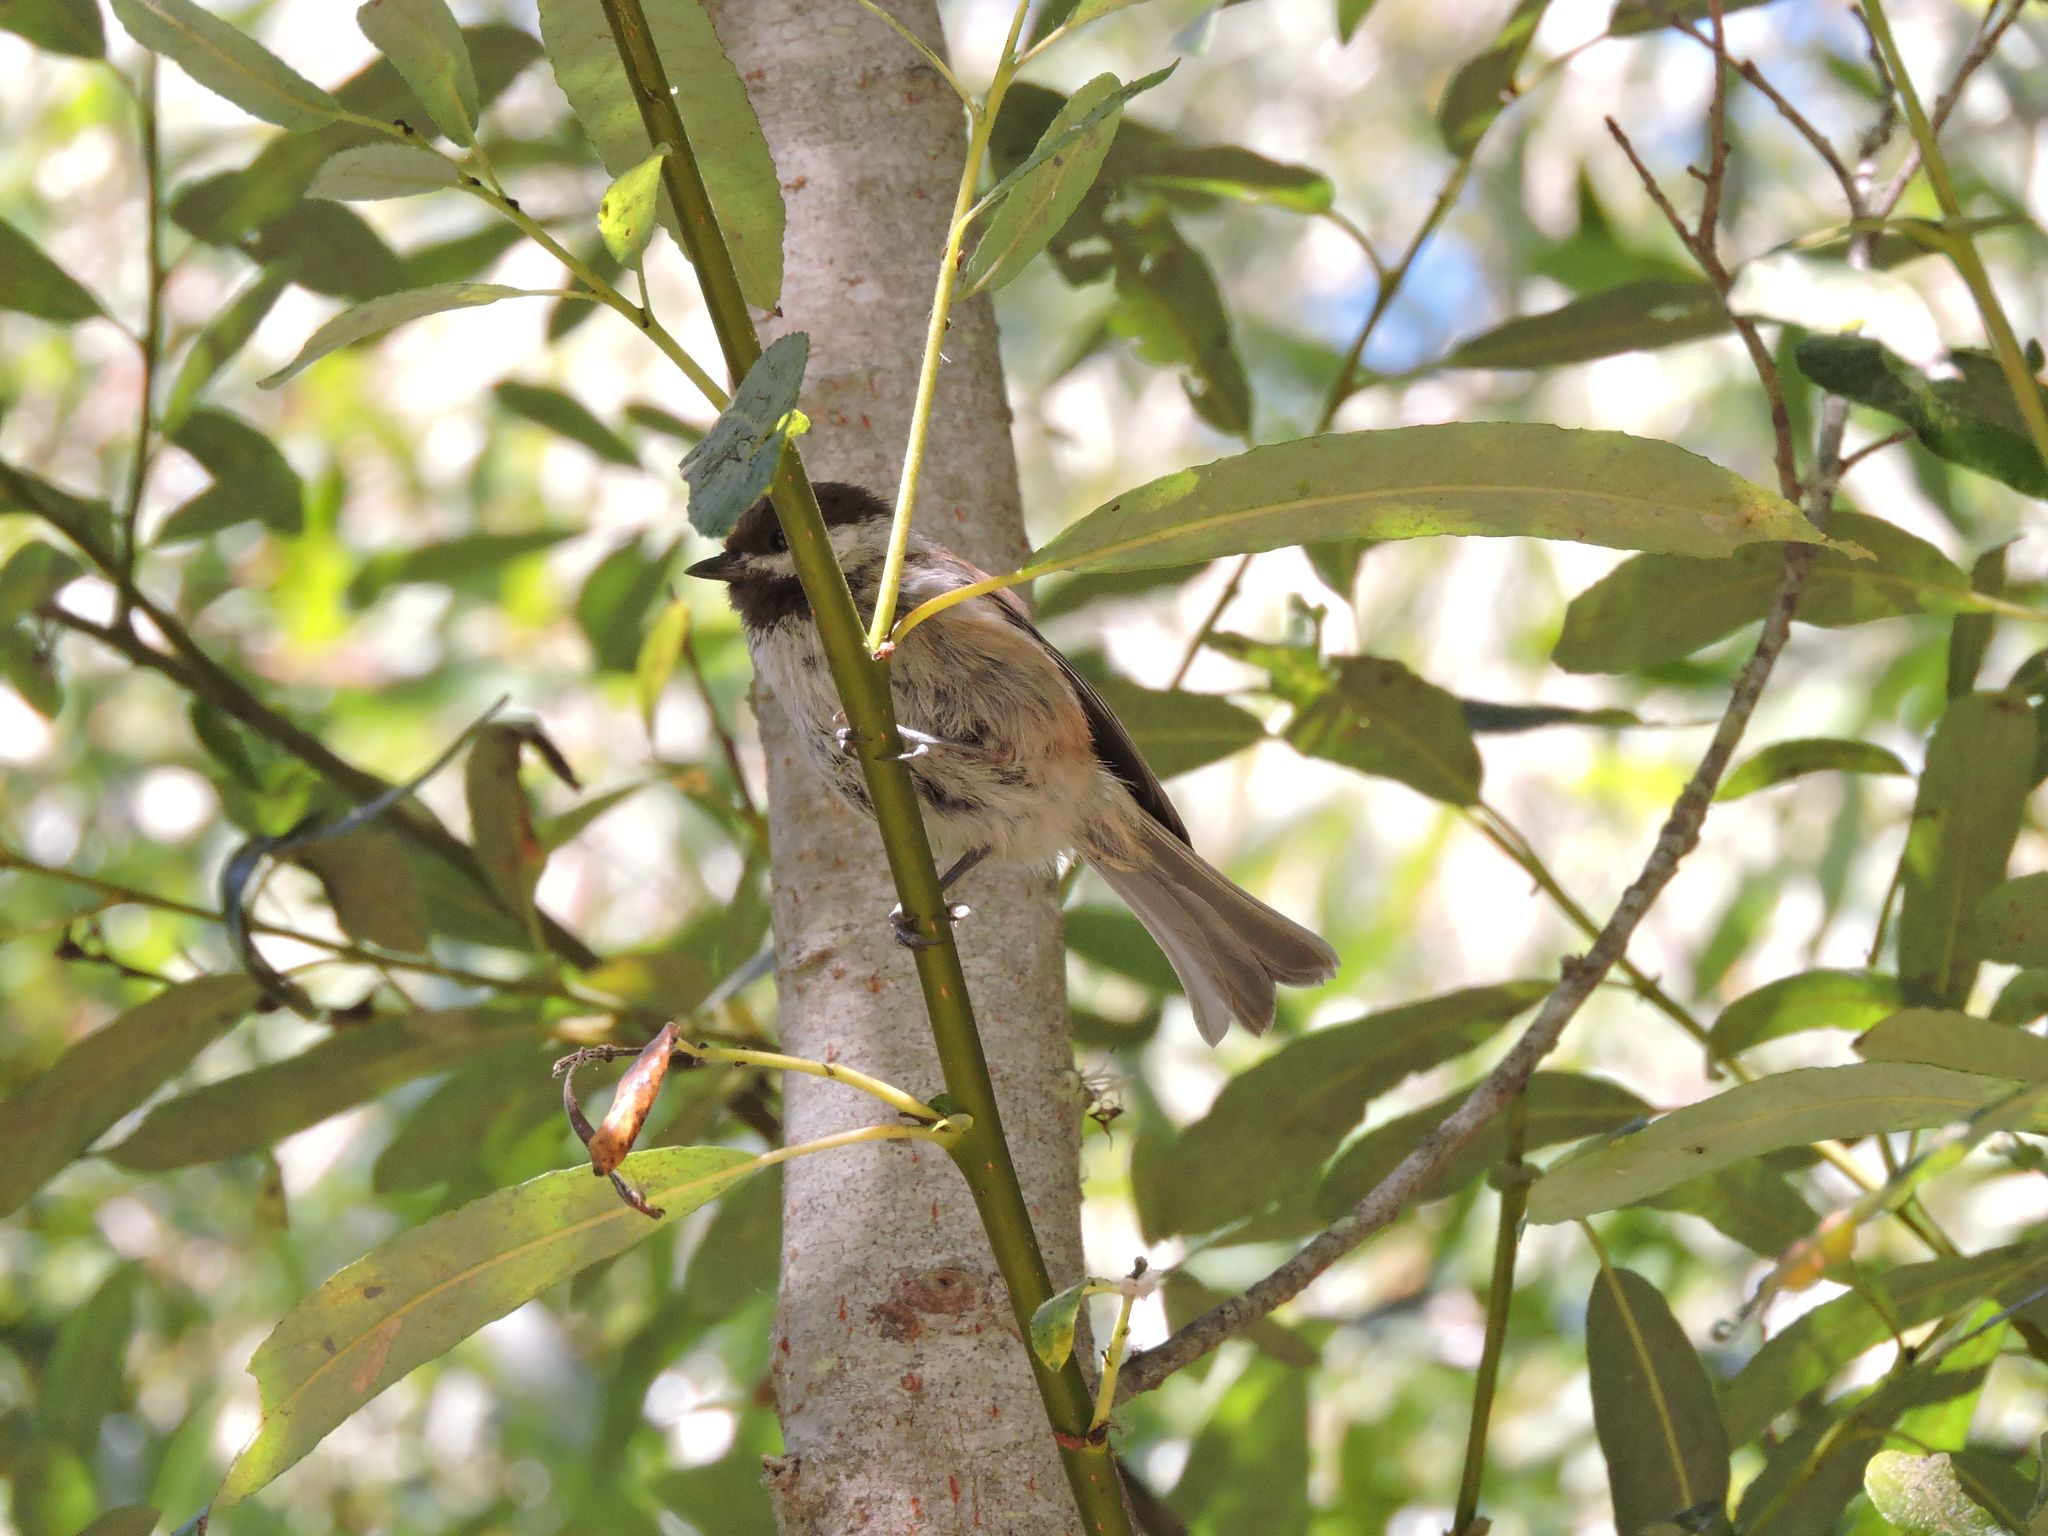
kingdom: Animalia
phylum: Chordata
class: Aves
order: Passeriformes
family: Paridae
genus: Poecile
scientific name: Poecile rufescens
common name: Chestnut-backed chickadee
